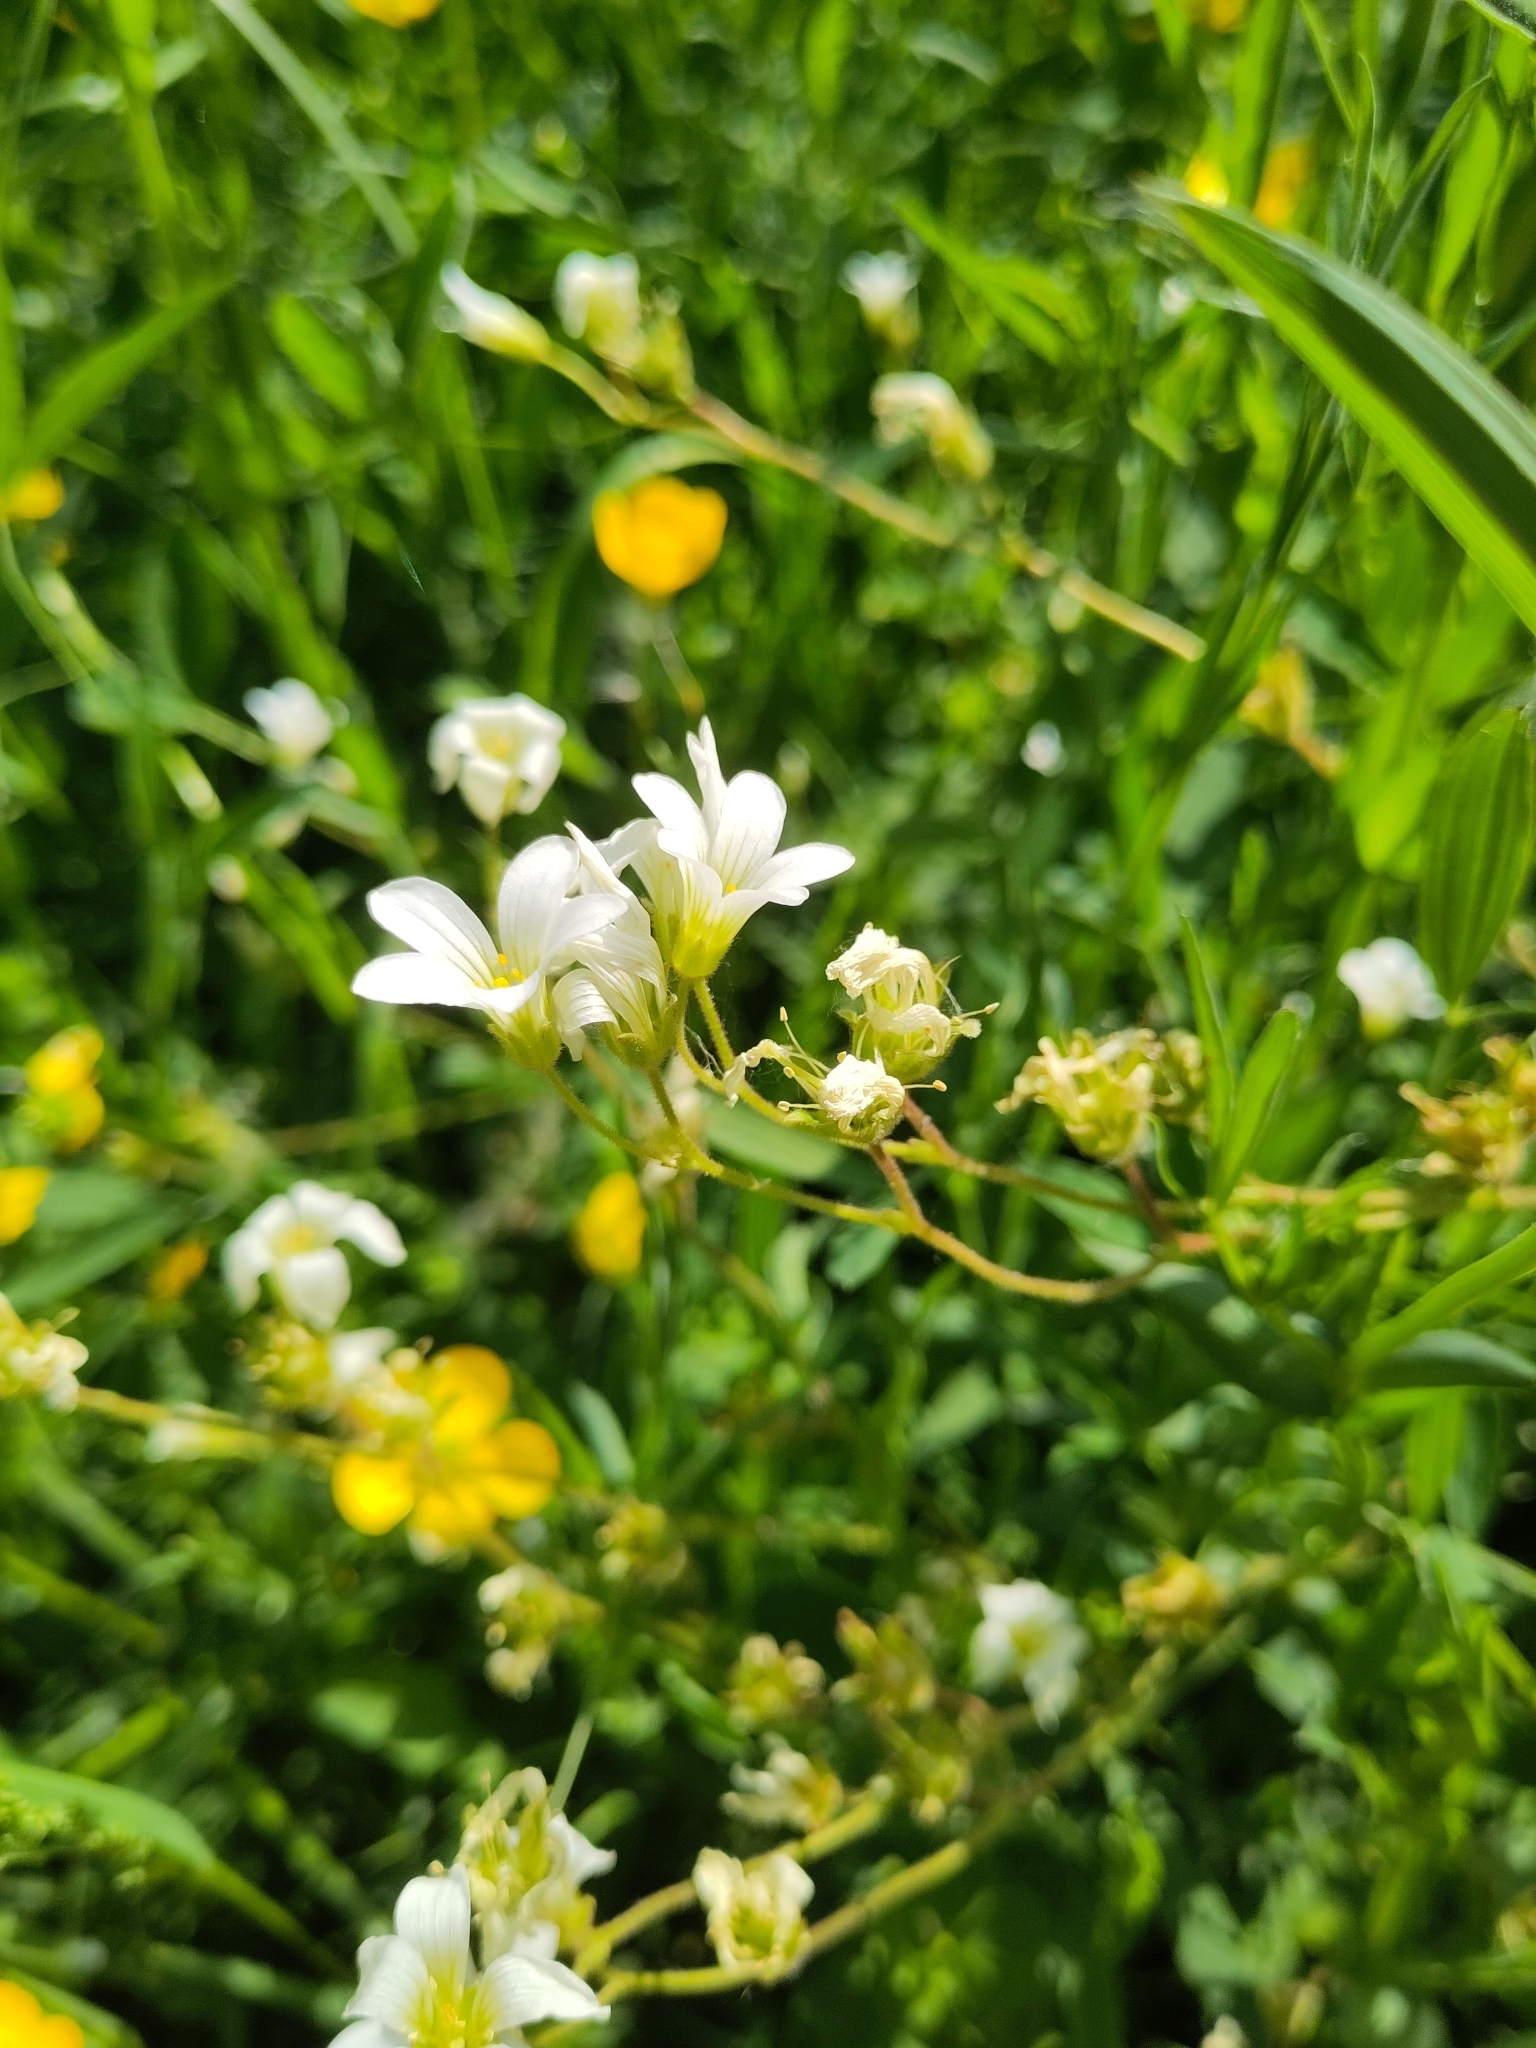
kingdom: Plantae
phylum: Tracheophyta
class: Magnoliopsida
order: Saxifragales
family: Saxifragaceae
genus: Saxifraga
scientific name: Saxifraga granulata
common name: Meadow saxifrage
